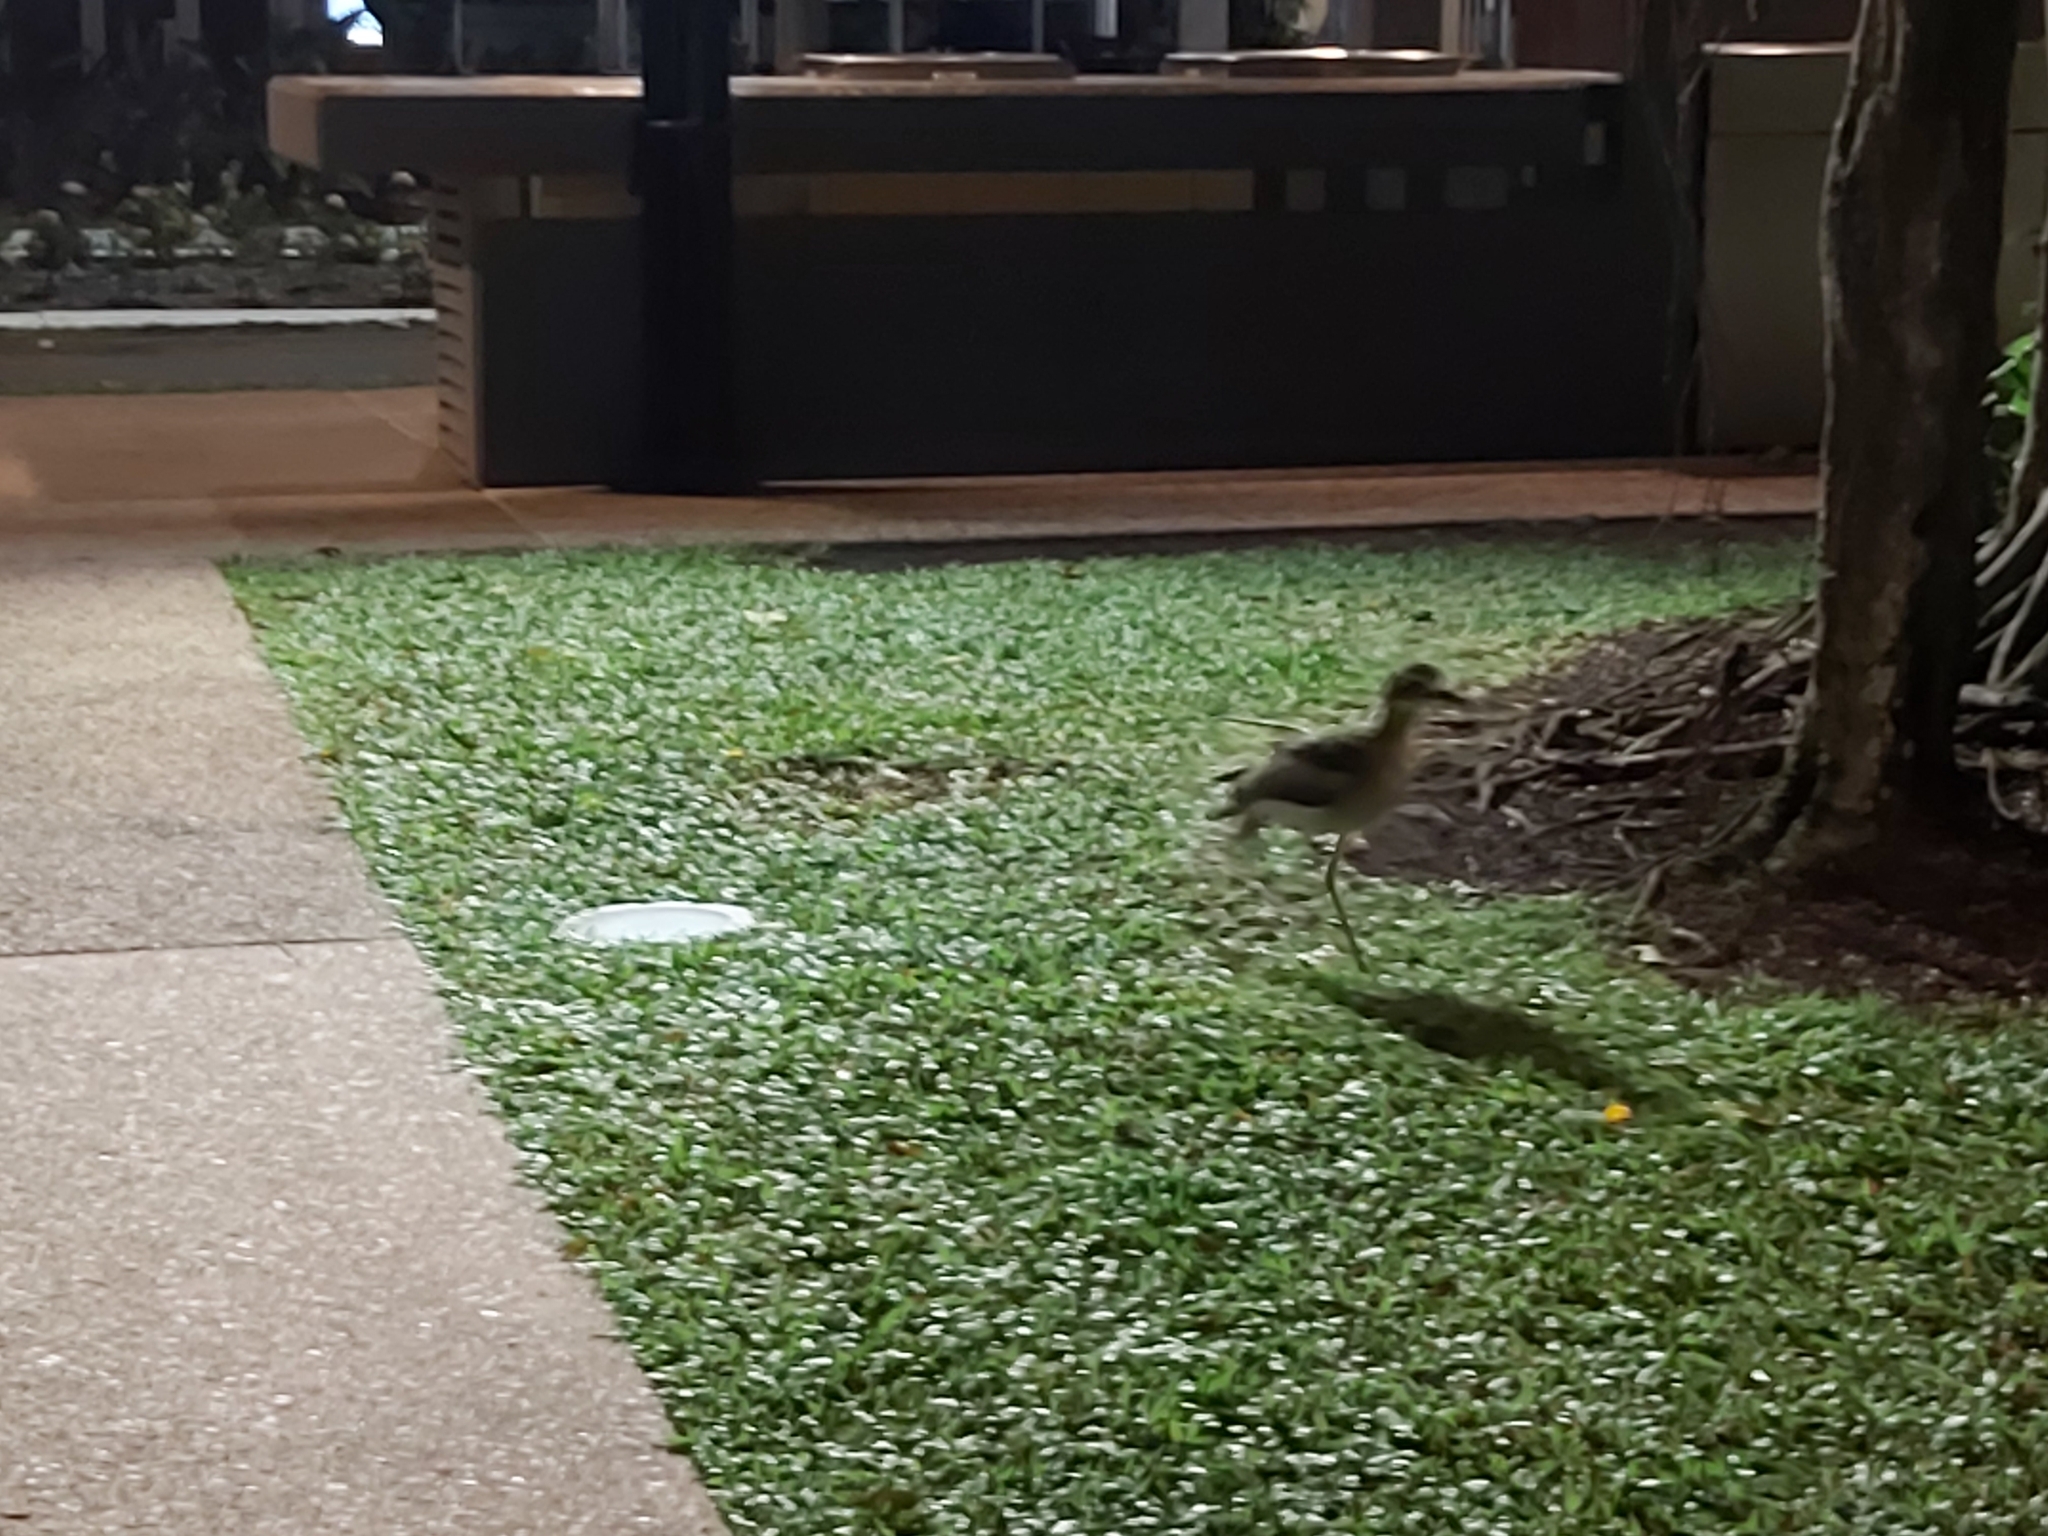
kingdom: Animalia
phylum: Chordata
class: Aves
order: Charadriiformes
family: Burhinidae
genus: Burhinus
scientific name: Burhinus grallarius
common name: Bush stone-curlew
